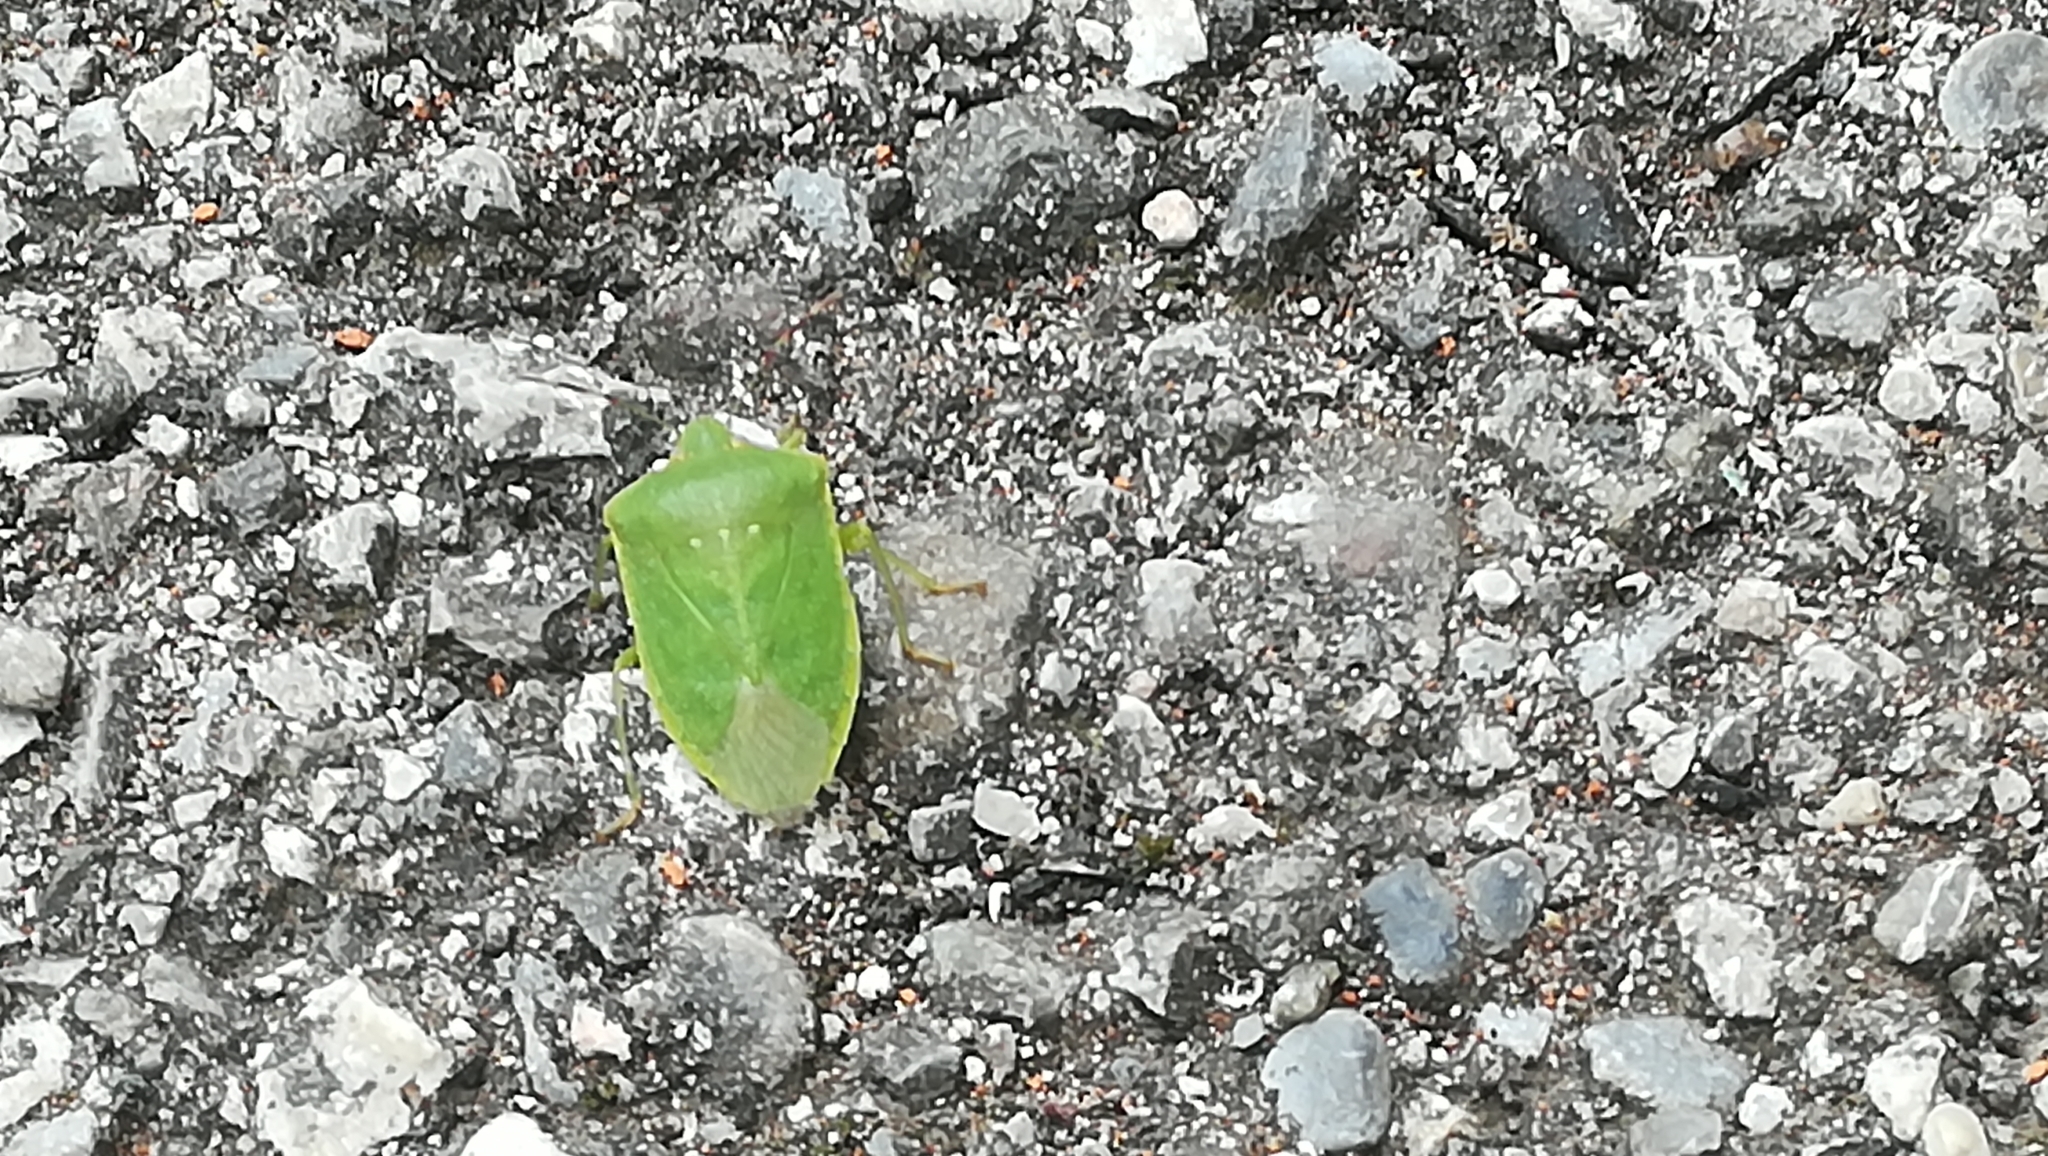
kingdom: Animalia
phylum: Arthropoda
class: Insecta
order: Hemiptera
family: Pentatomidae
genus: Nezara
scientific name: Nezara viridula
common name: Southern green stink bug
